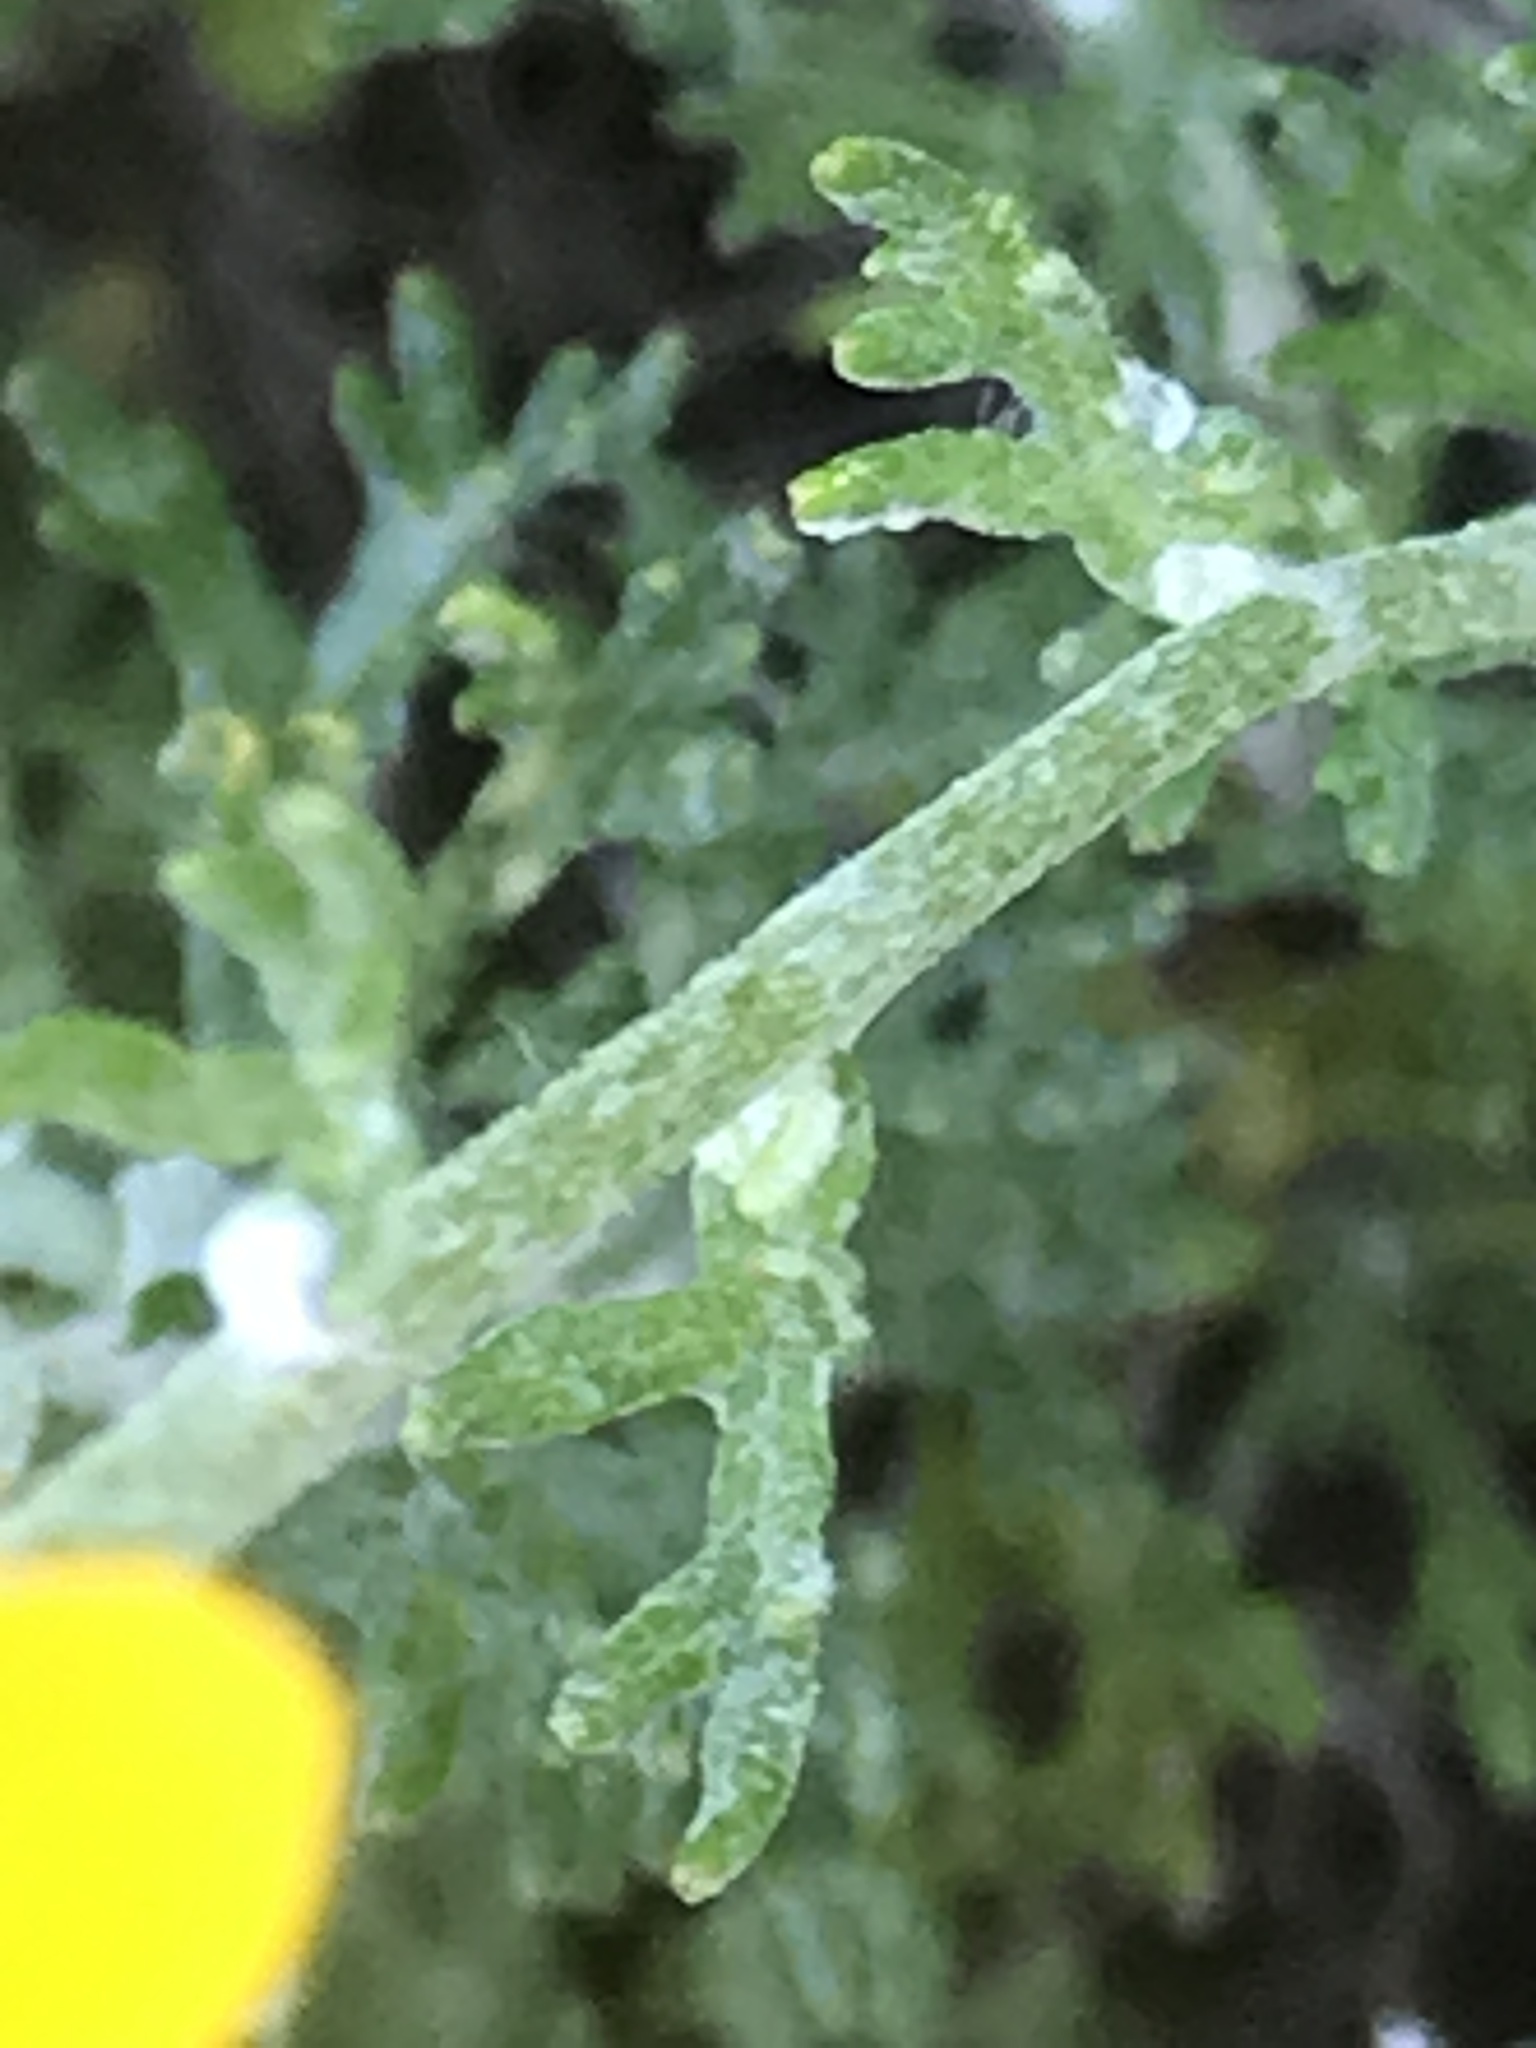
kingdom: Plantae
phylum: Tracheophyta
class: Magnoliopsida
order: Asterales
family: Asteraceae
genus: Eriophyllum
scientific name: Eriophyllum confertiflorum
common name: Golden-yarrow
